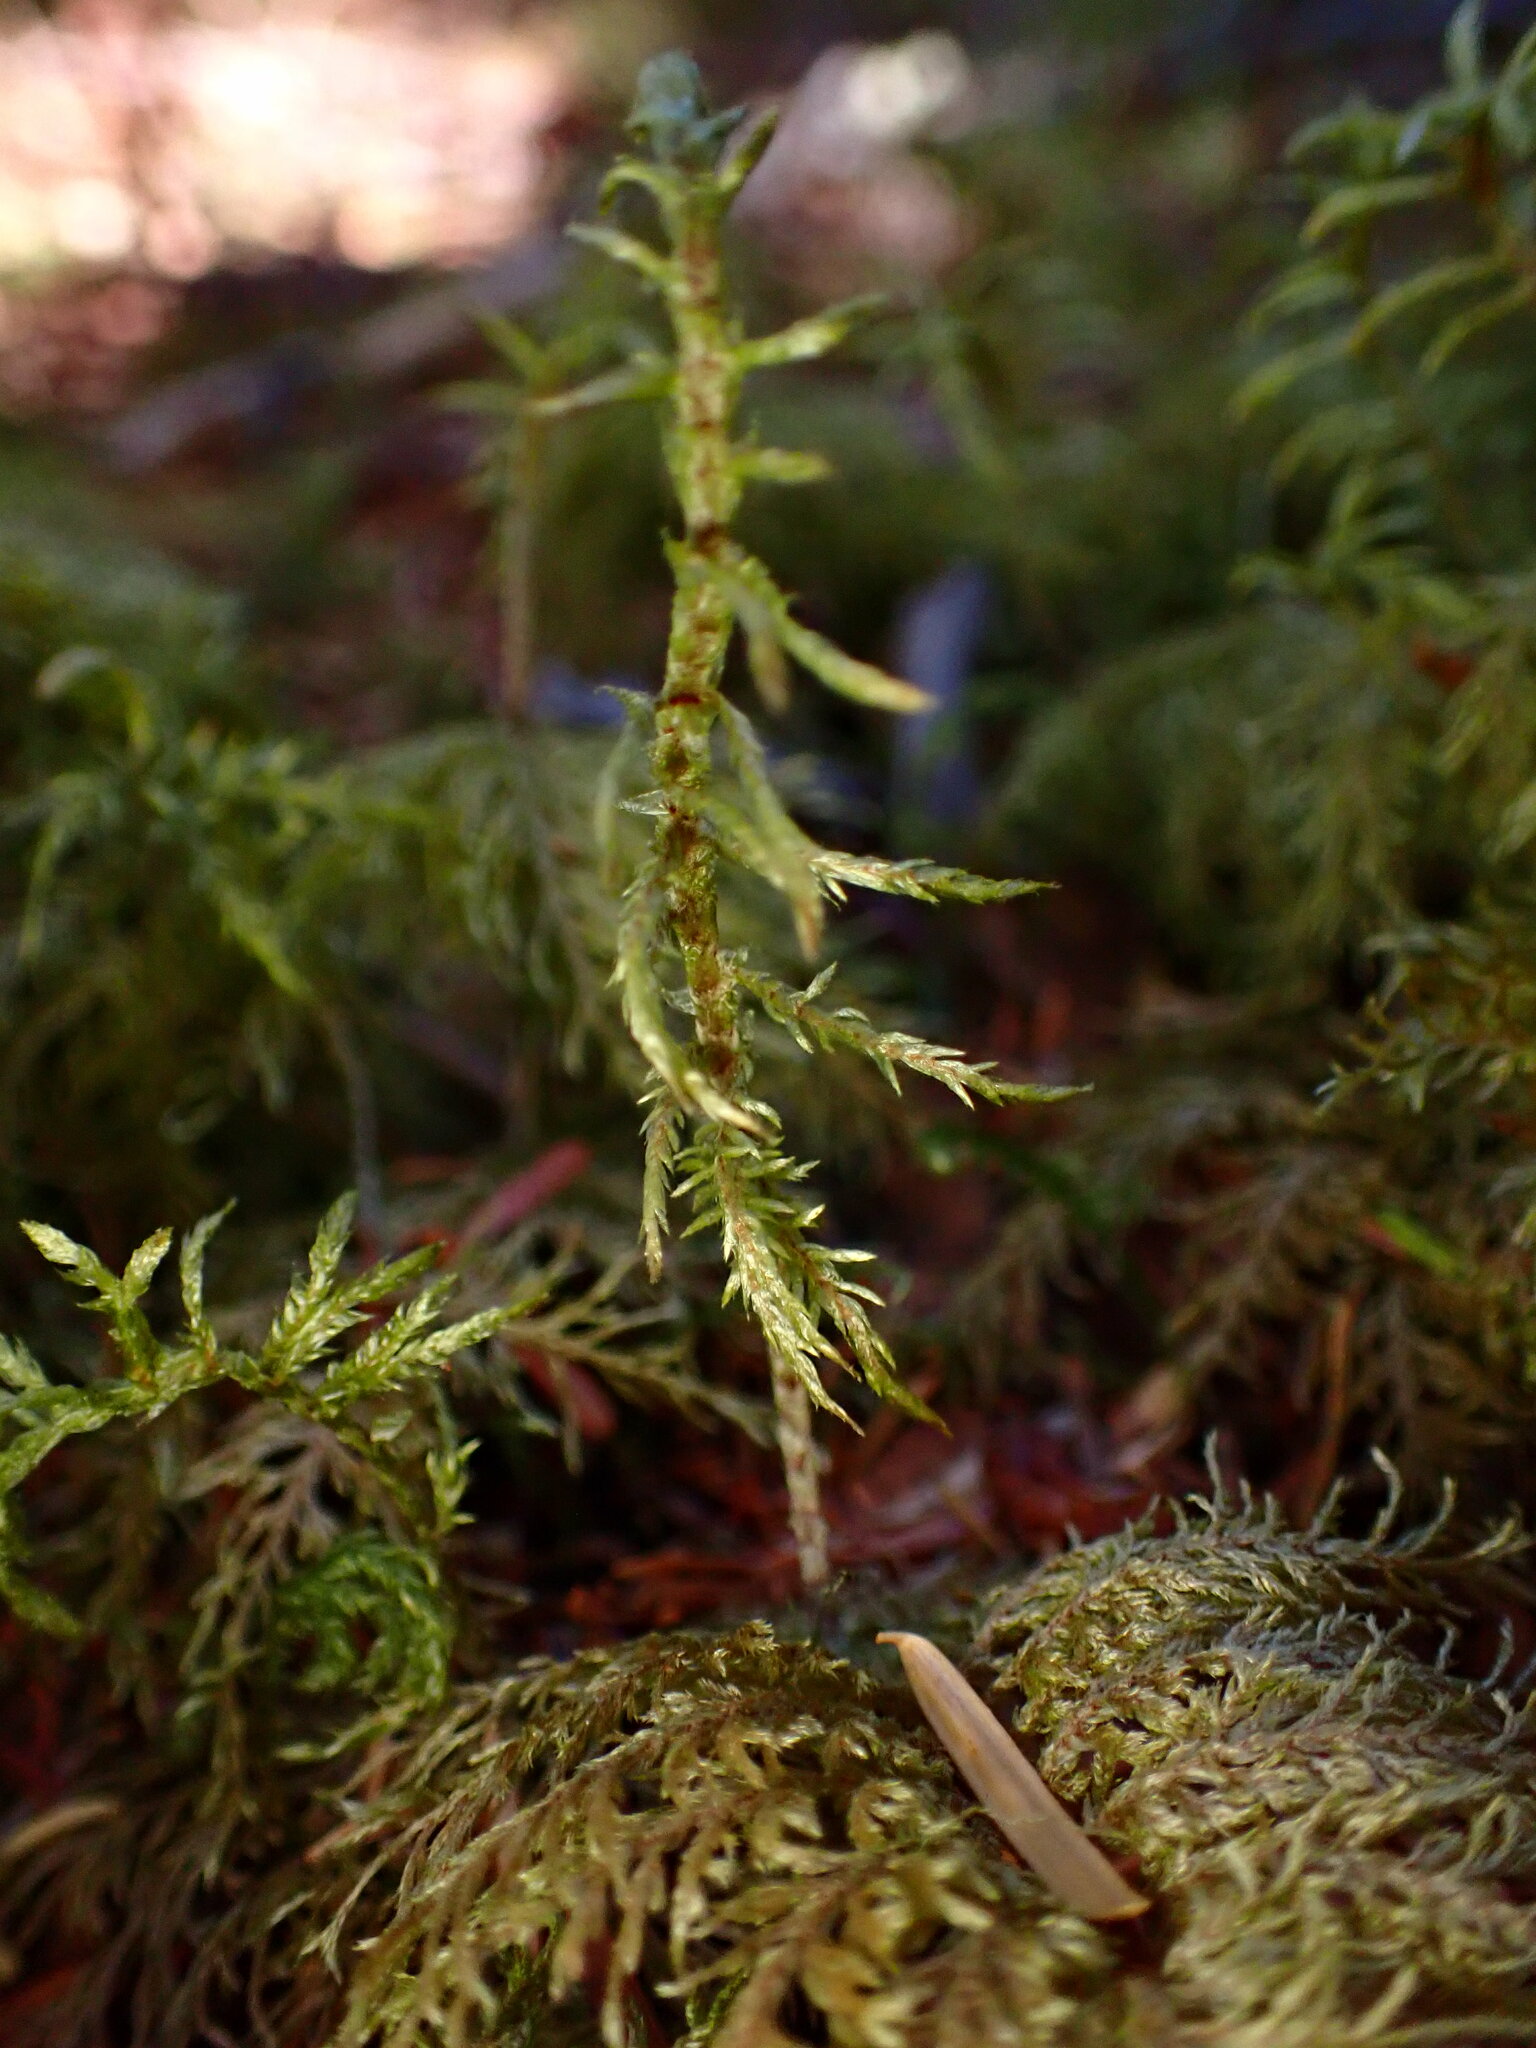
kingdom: Plantae
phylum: Bryophyta
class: Bryopsida
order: Hypnales
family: Hylocomiaceae
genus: Hylocomium
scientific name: Hylocomium splendens
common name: Stairstep moss
